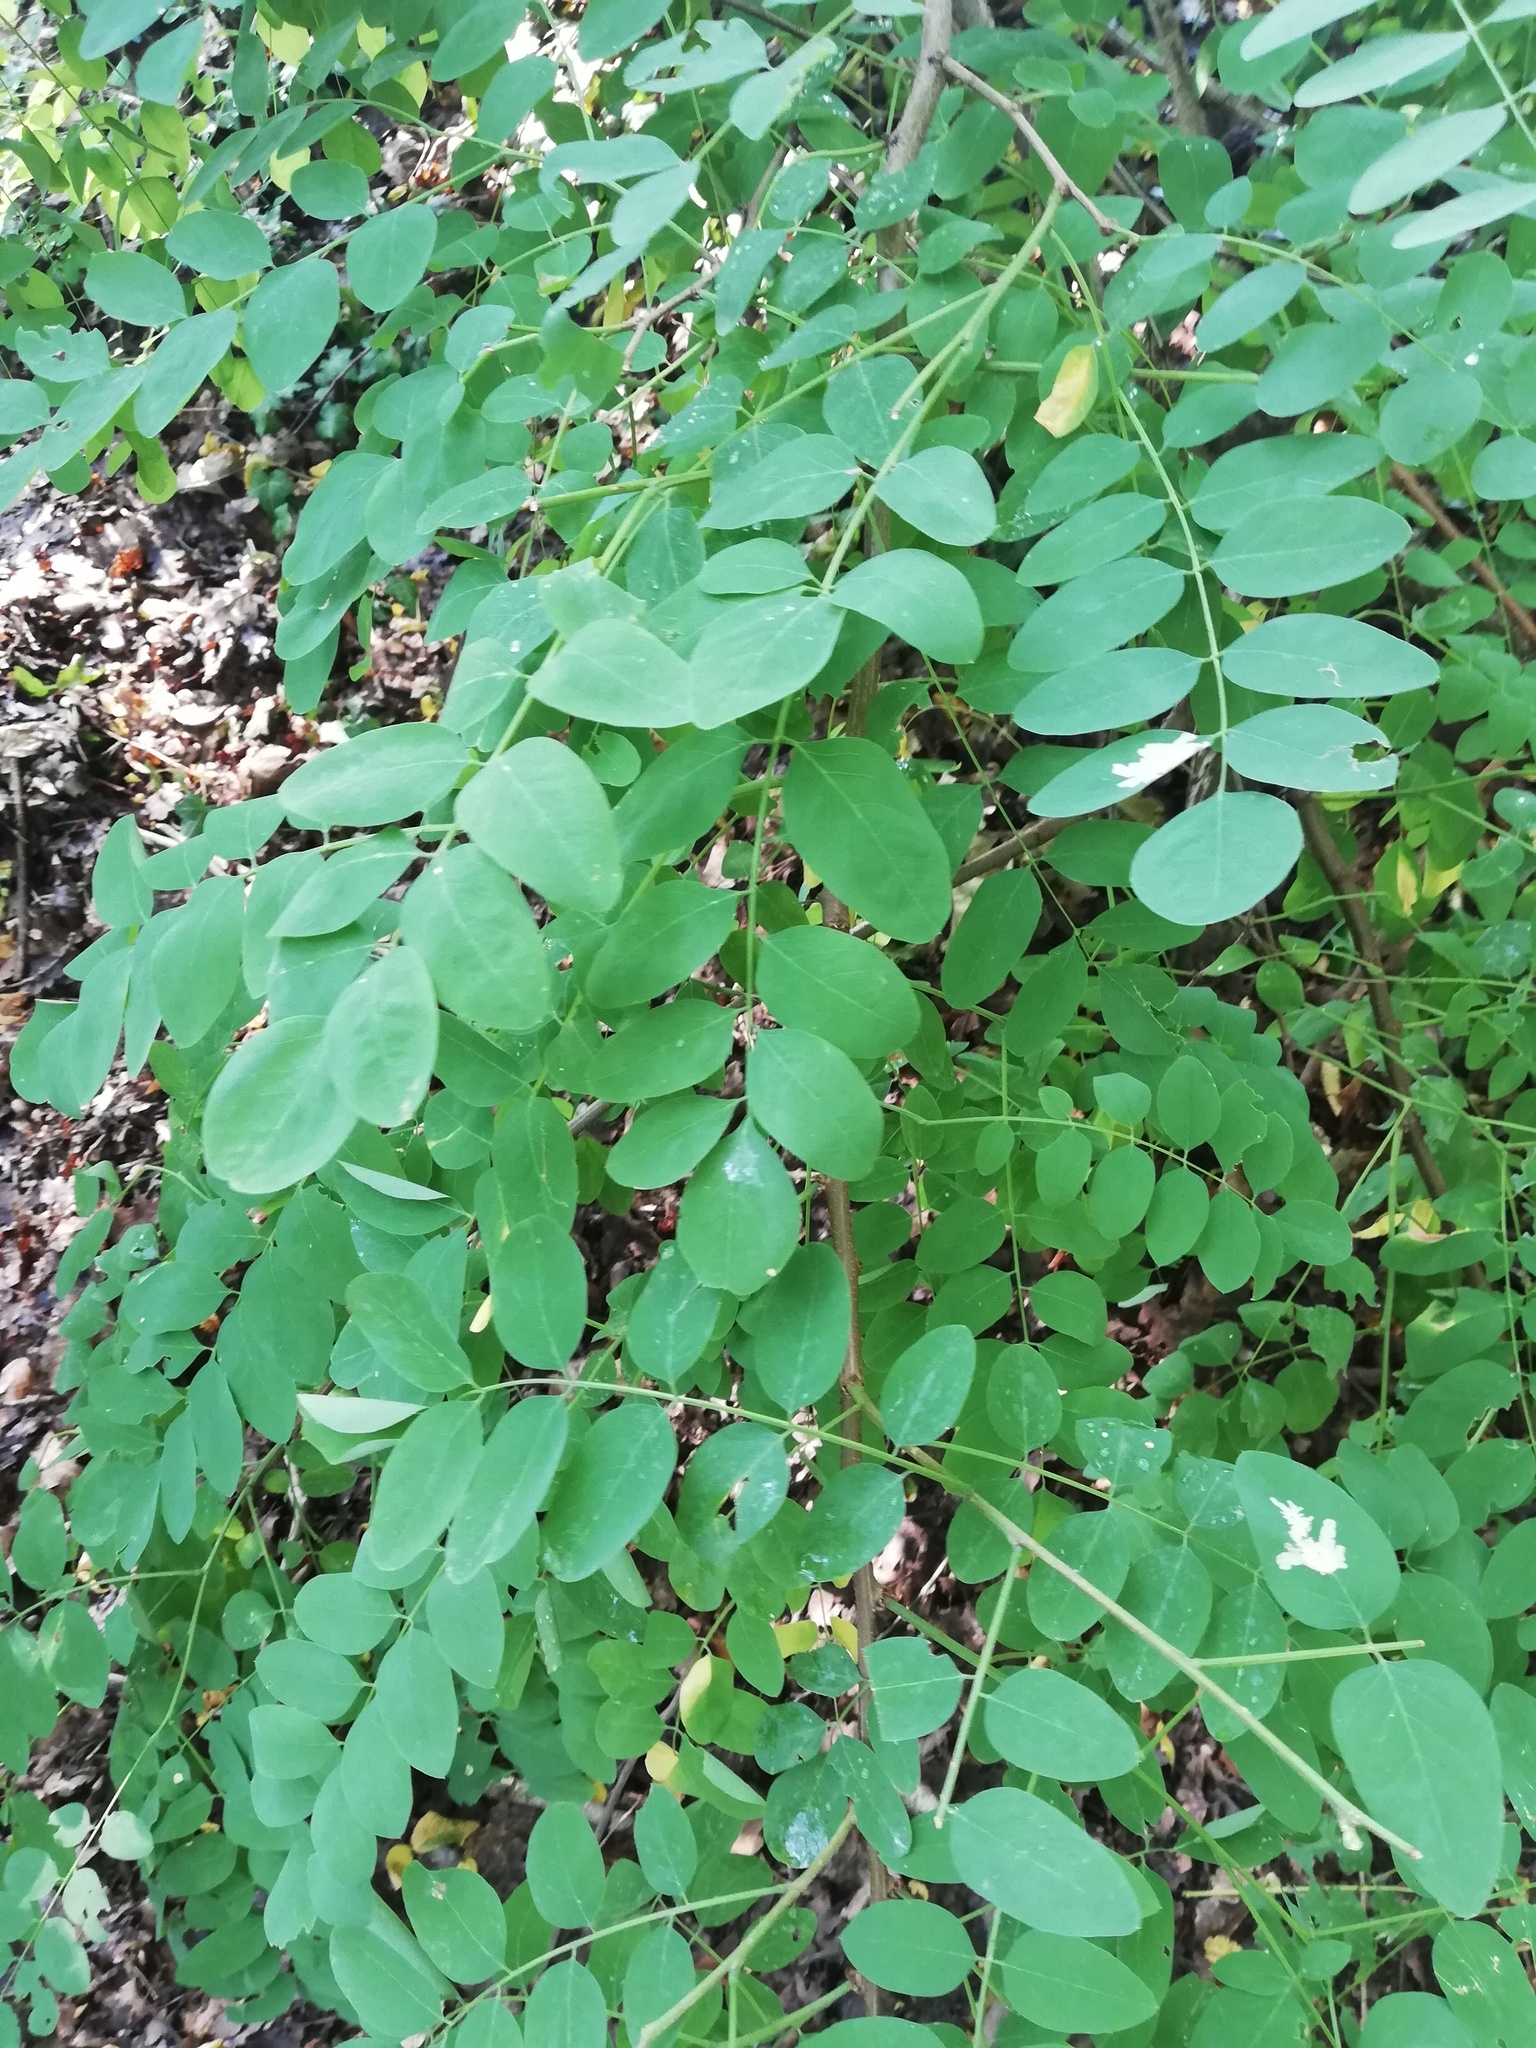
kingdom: Plantae
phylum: Tracheophyta
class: Magnoliopsida
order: Fabales
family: Fabaceae
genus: Robinia
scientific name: Robinia pseudoacacia
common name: Black locust
